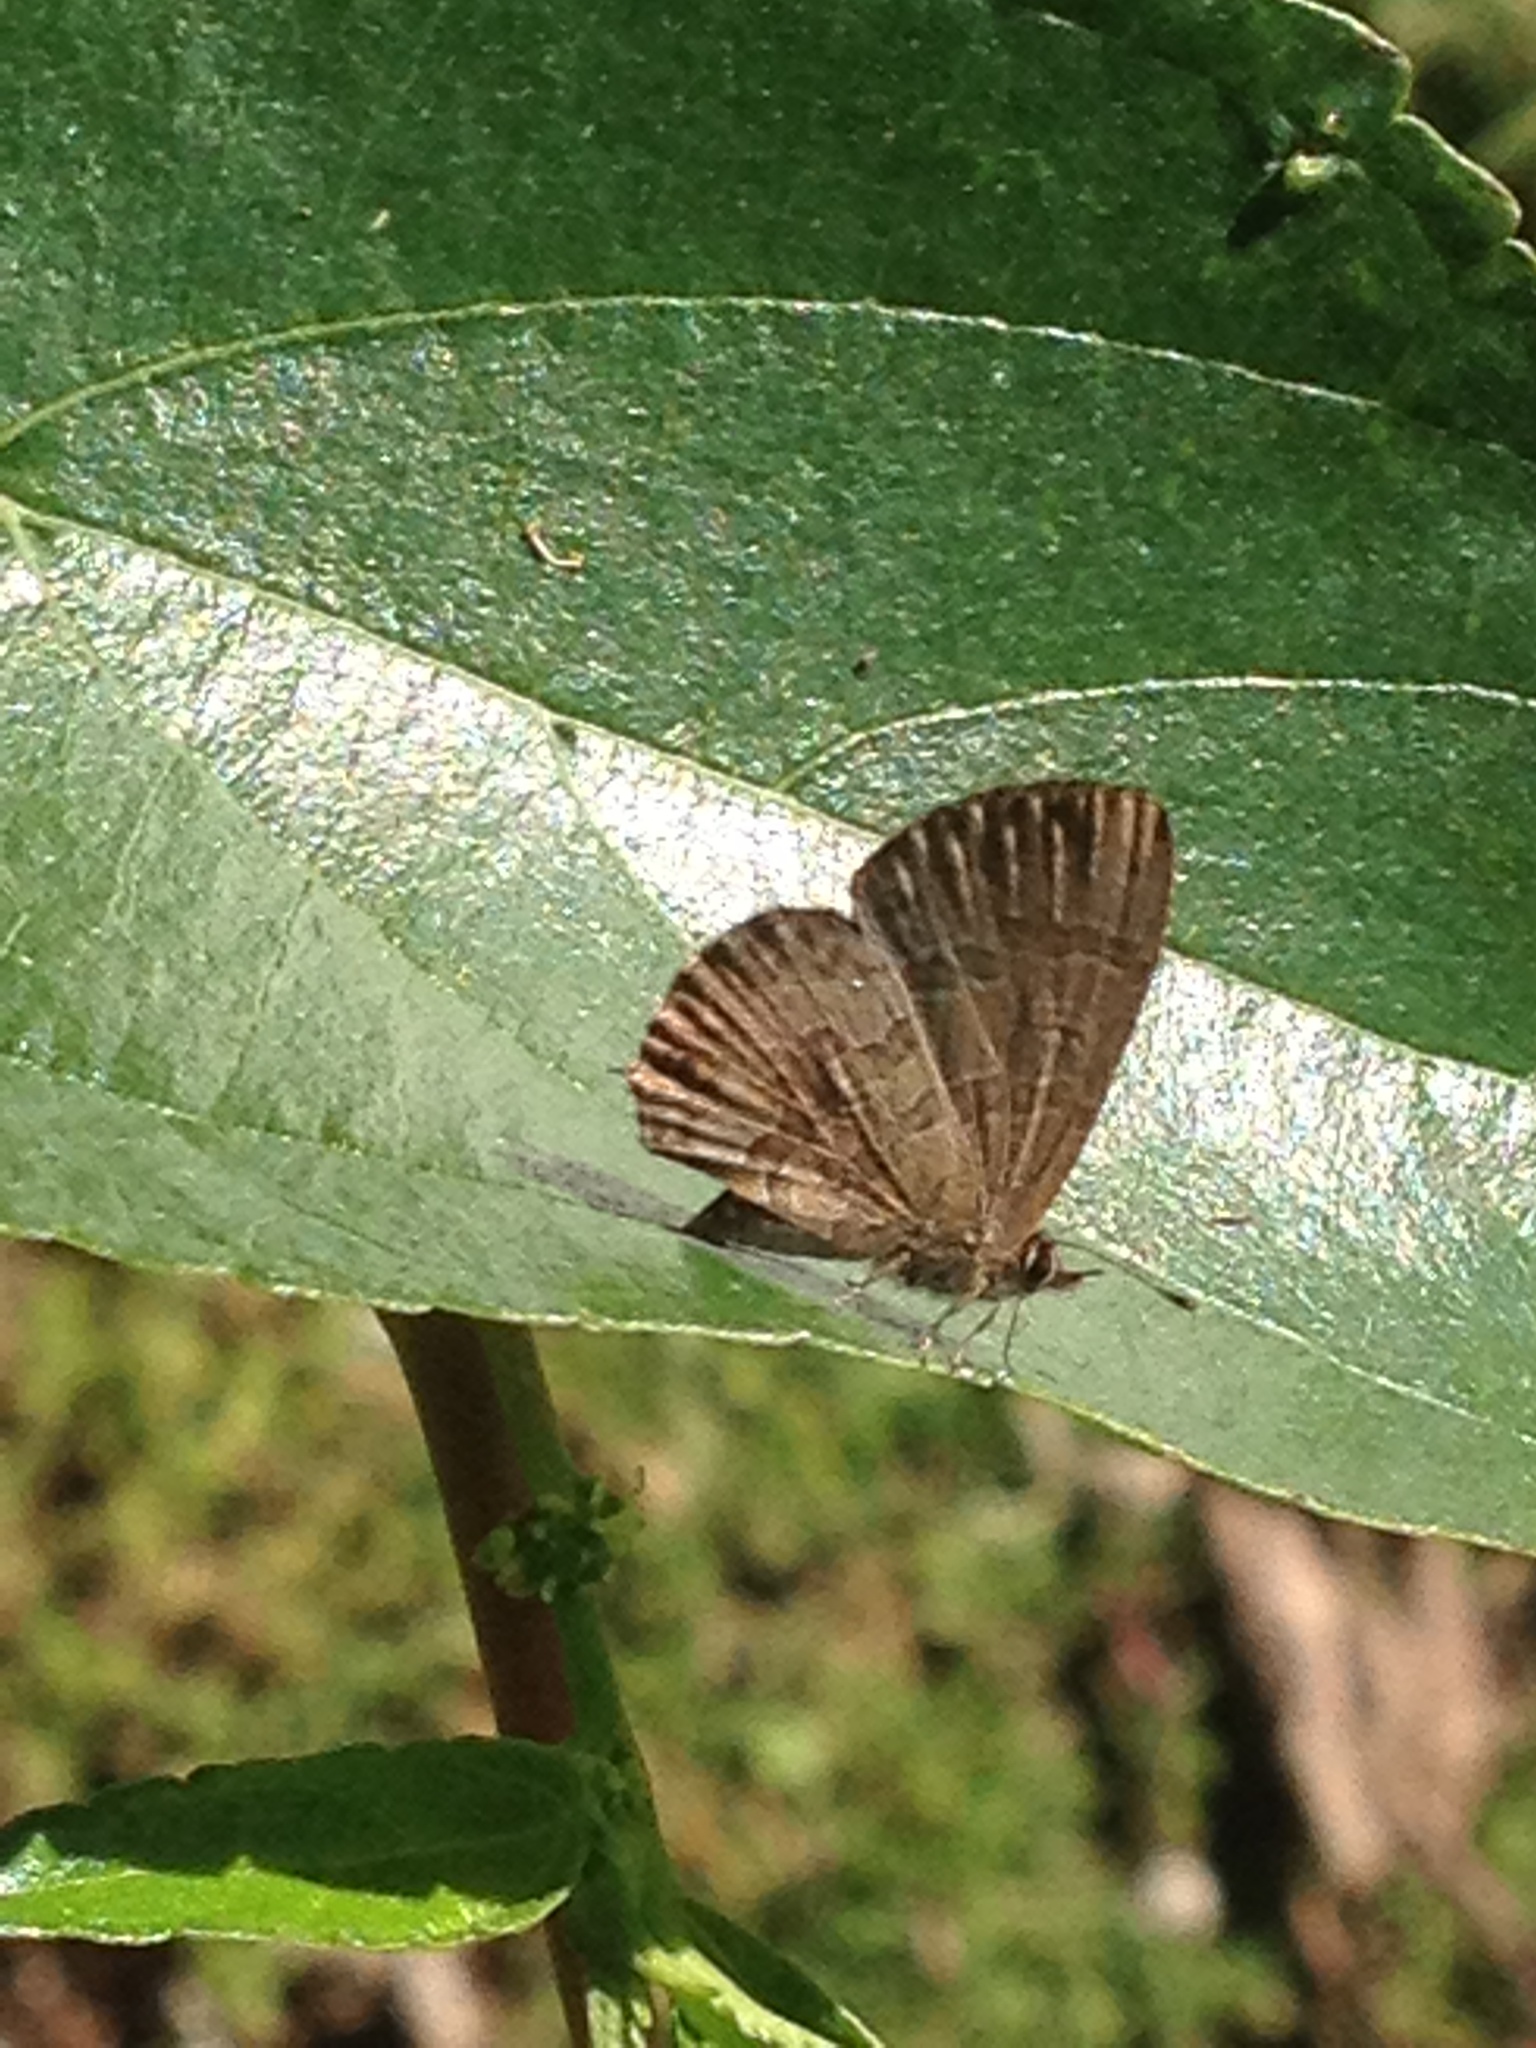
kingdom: Animalia
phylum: Arthropoda
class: Insecta
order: Lepidoptera
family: Lycaenidae
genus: Prosotas
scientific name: Prosotas felderi
